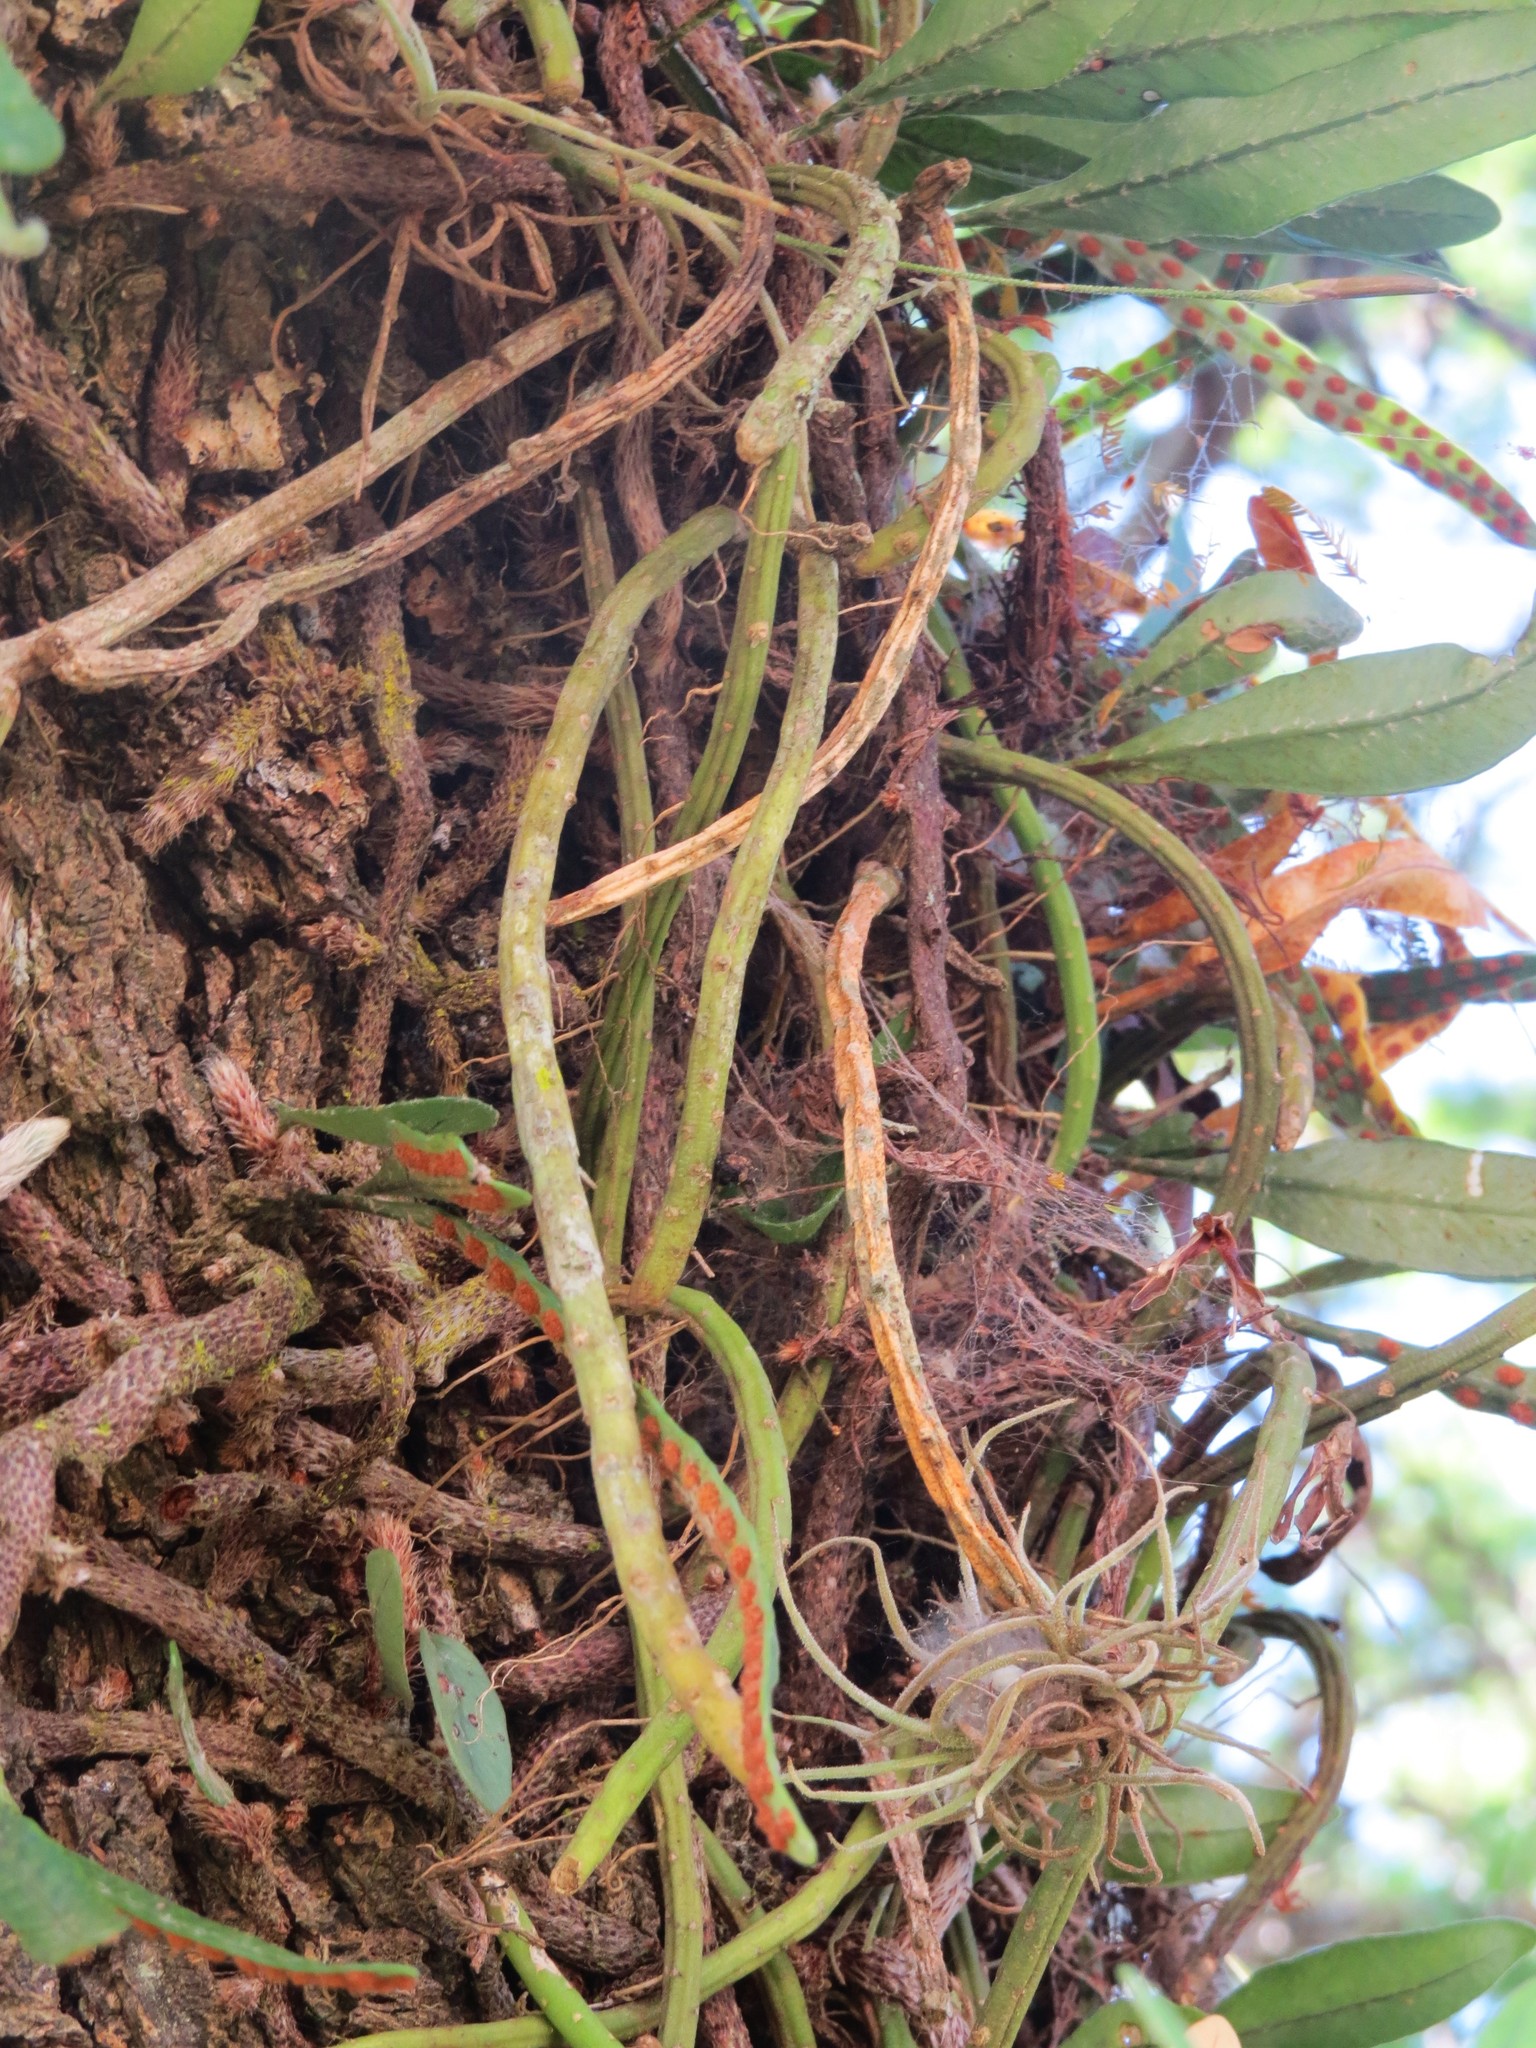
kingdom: Plantae
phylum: Tracheophyta
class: Magnoliopsida
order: Caryophyllales
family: Cactaceae
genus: Lepismium
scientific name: Lepismium lumbricoides
